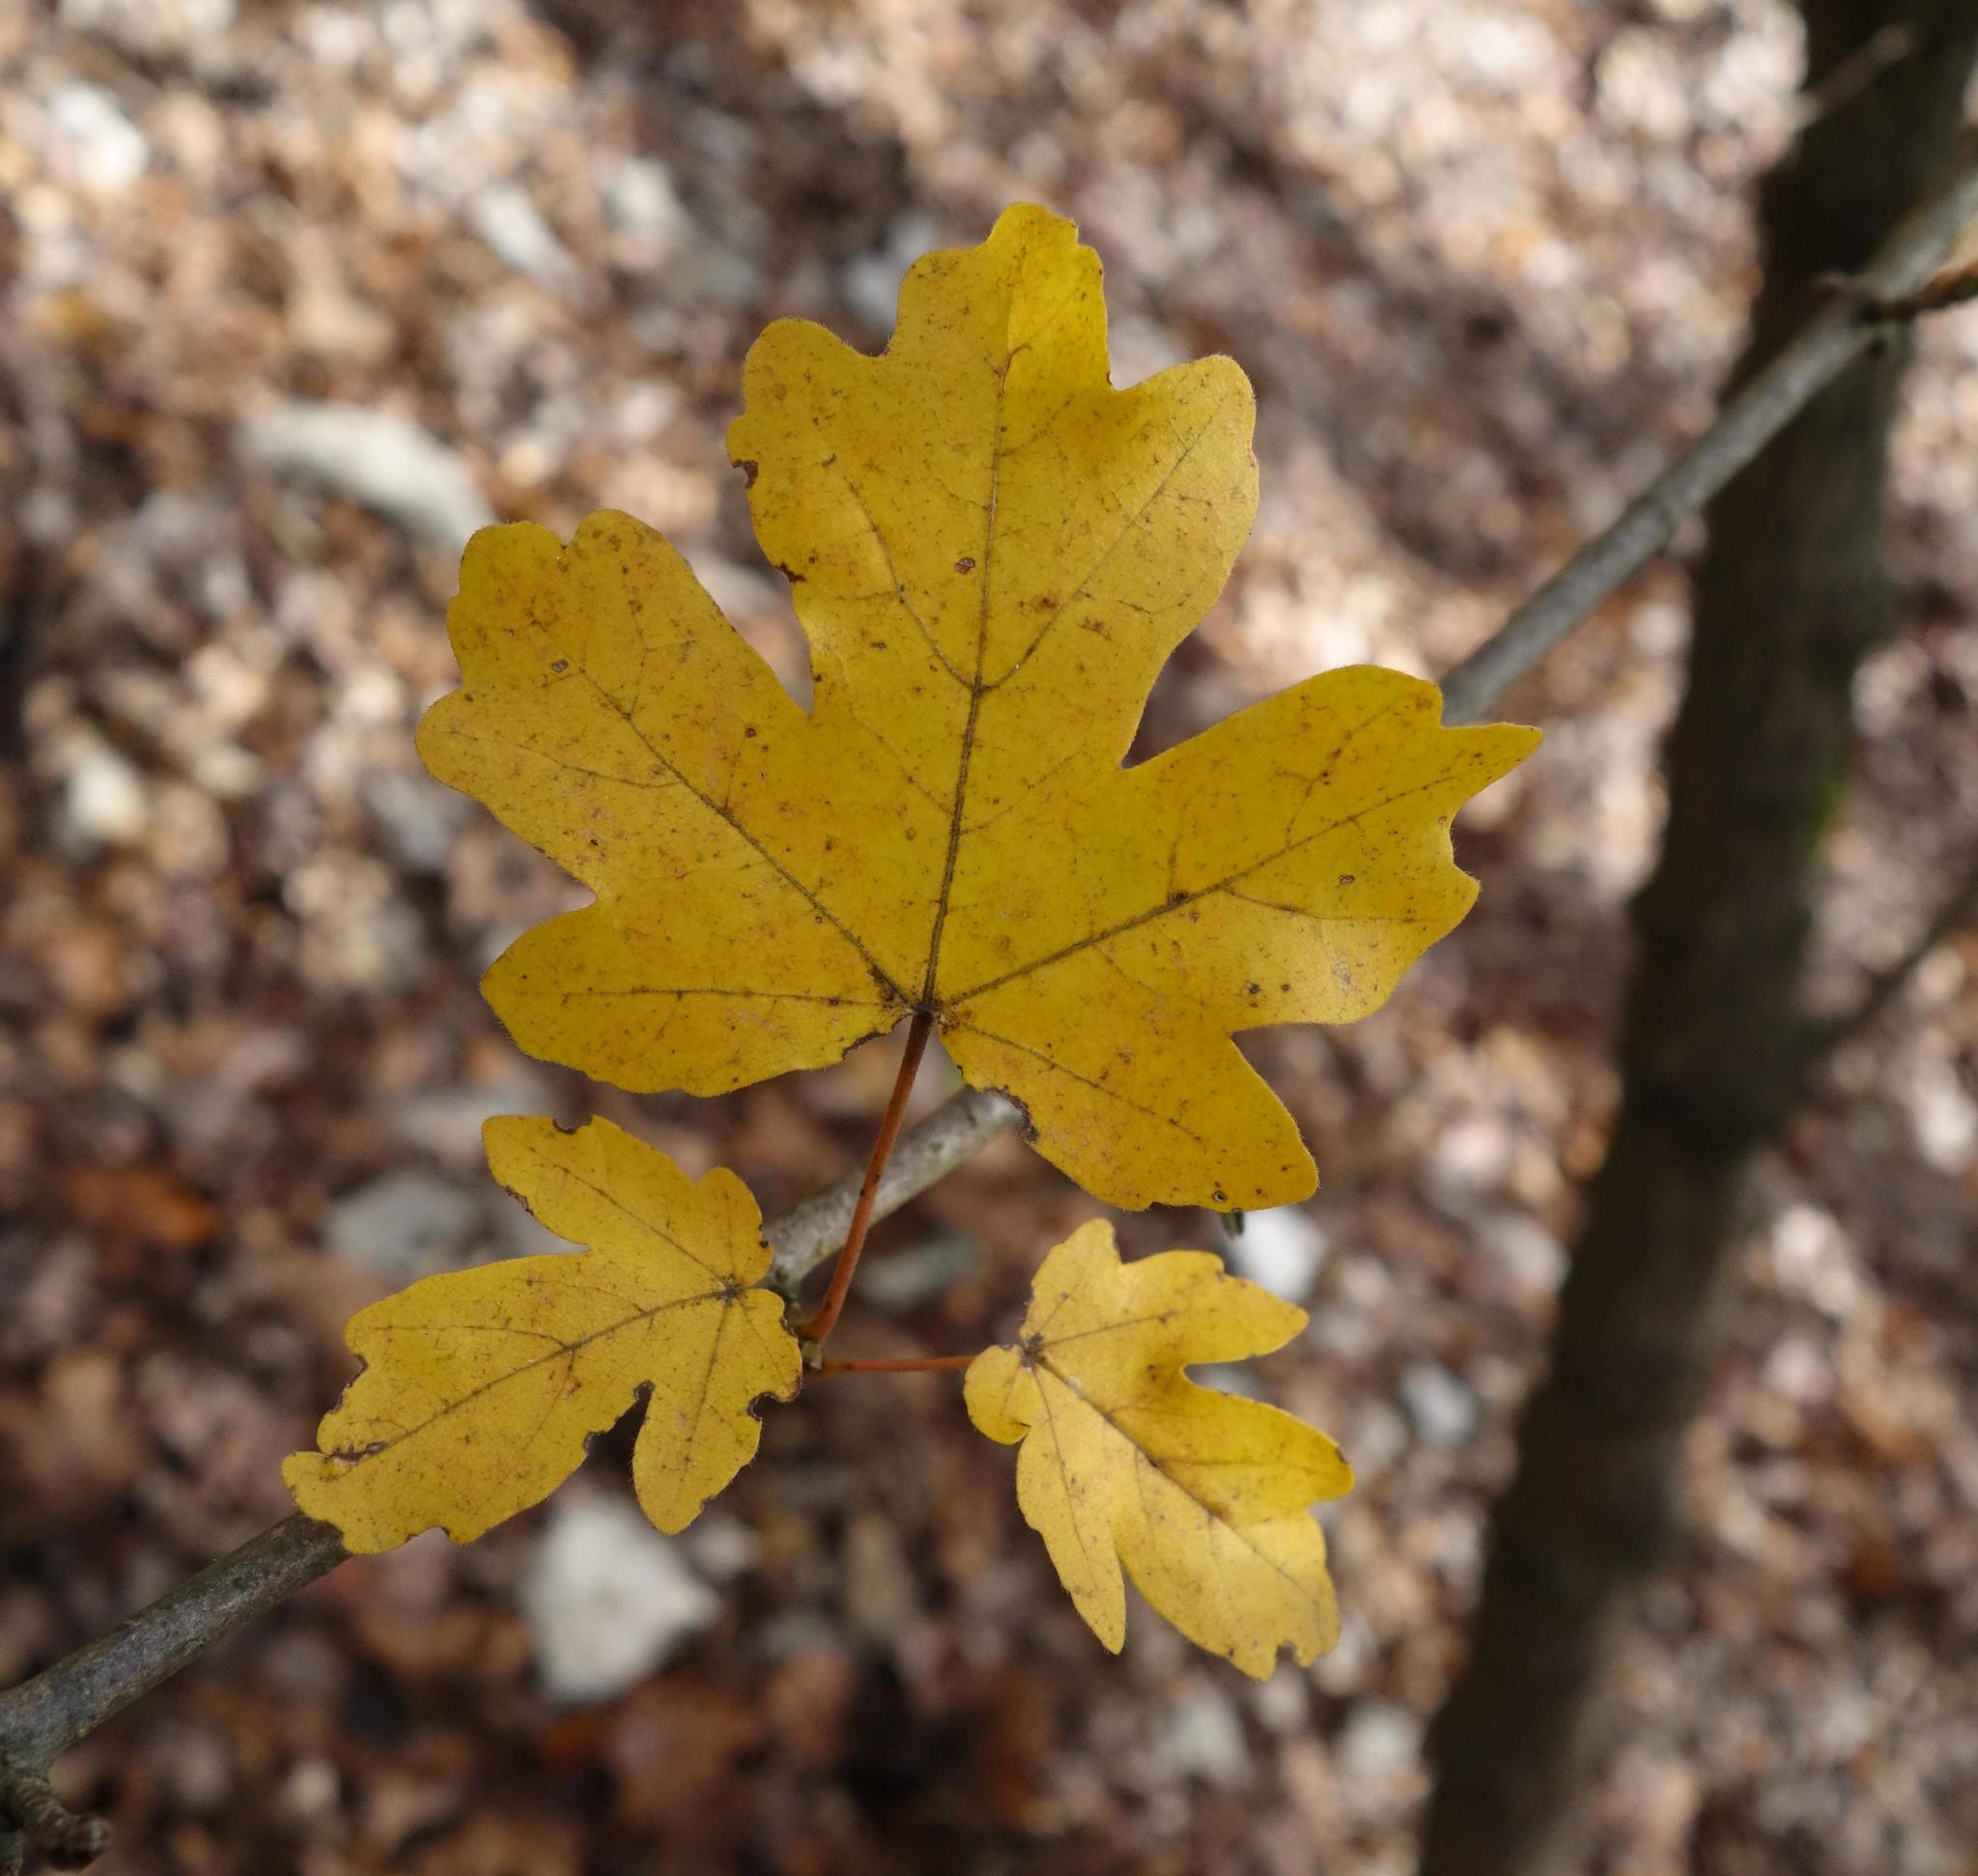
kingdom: Plantae
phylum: Tracheophyta
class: Magnoliopsida
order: Sapindales
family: Sapindaceae
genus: Acer
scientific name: Acer campestre
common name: Field maple
